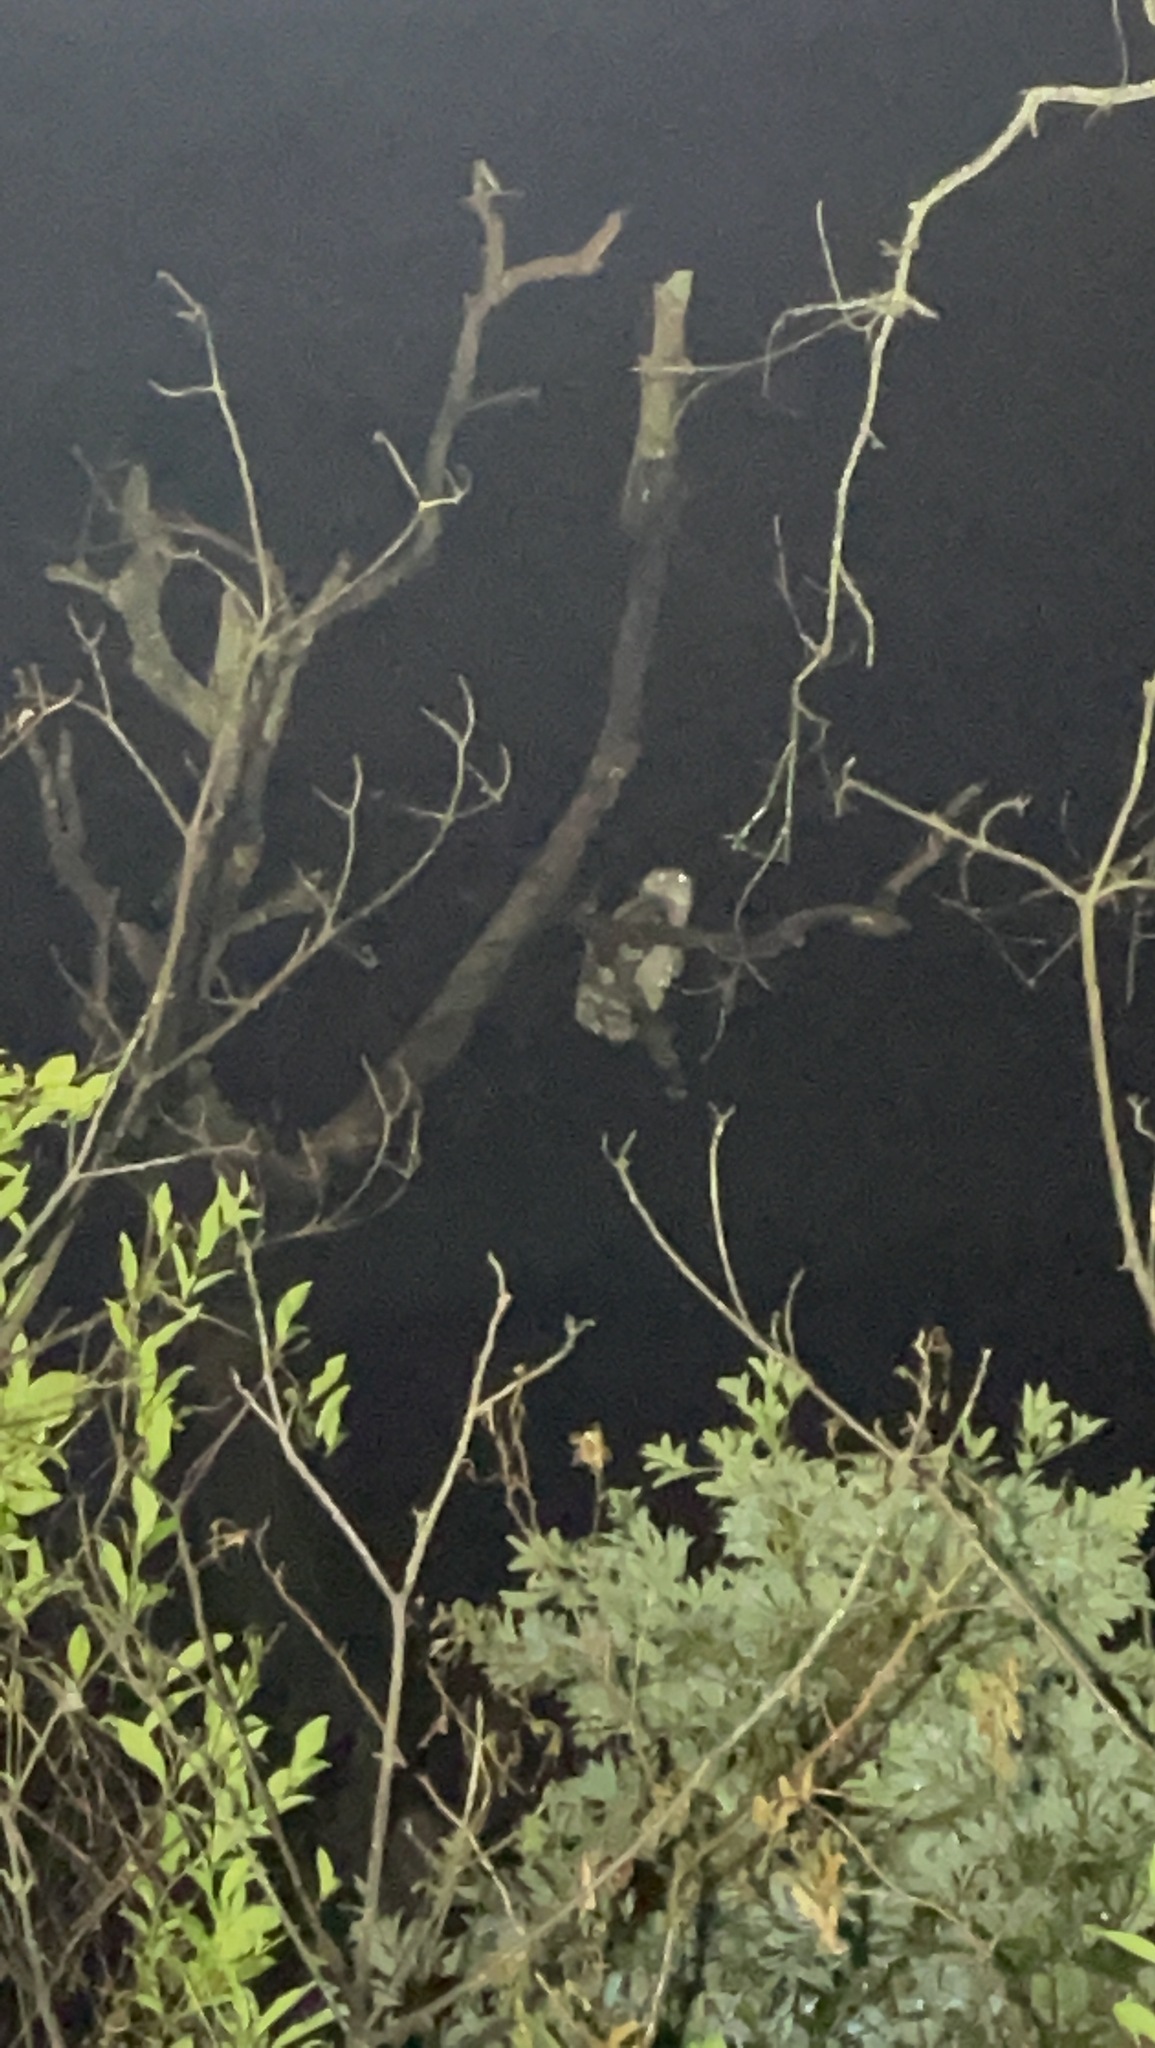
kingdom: Animalia
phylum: Chordata
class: Aves
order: Strigiformes
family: Strigidae
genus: Ketupa
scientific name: Ketupa zeylonensis
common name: Brown fish owl
